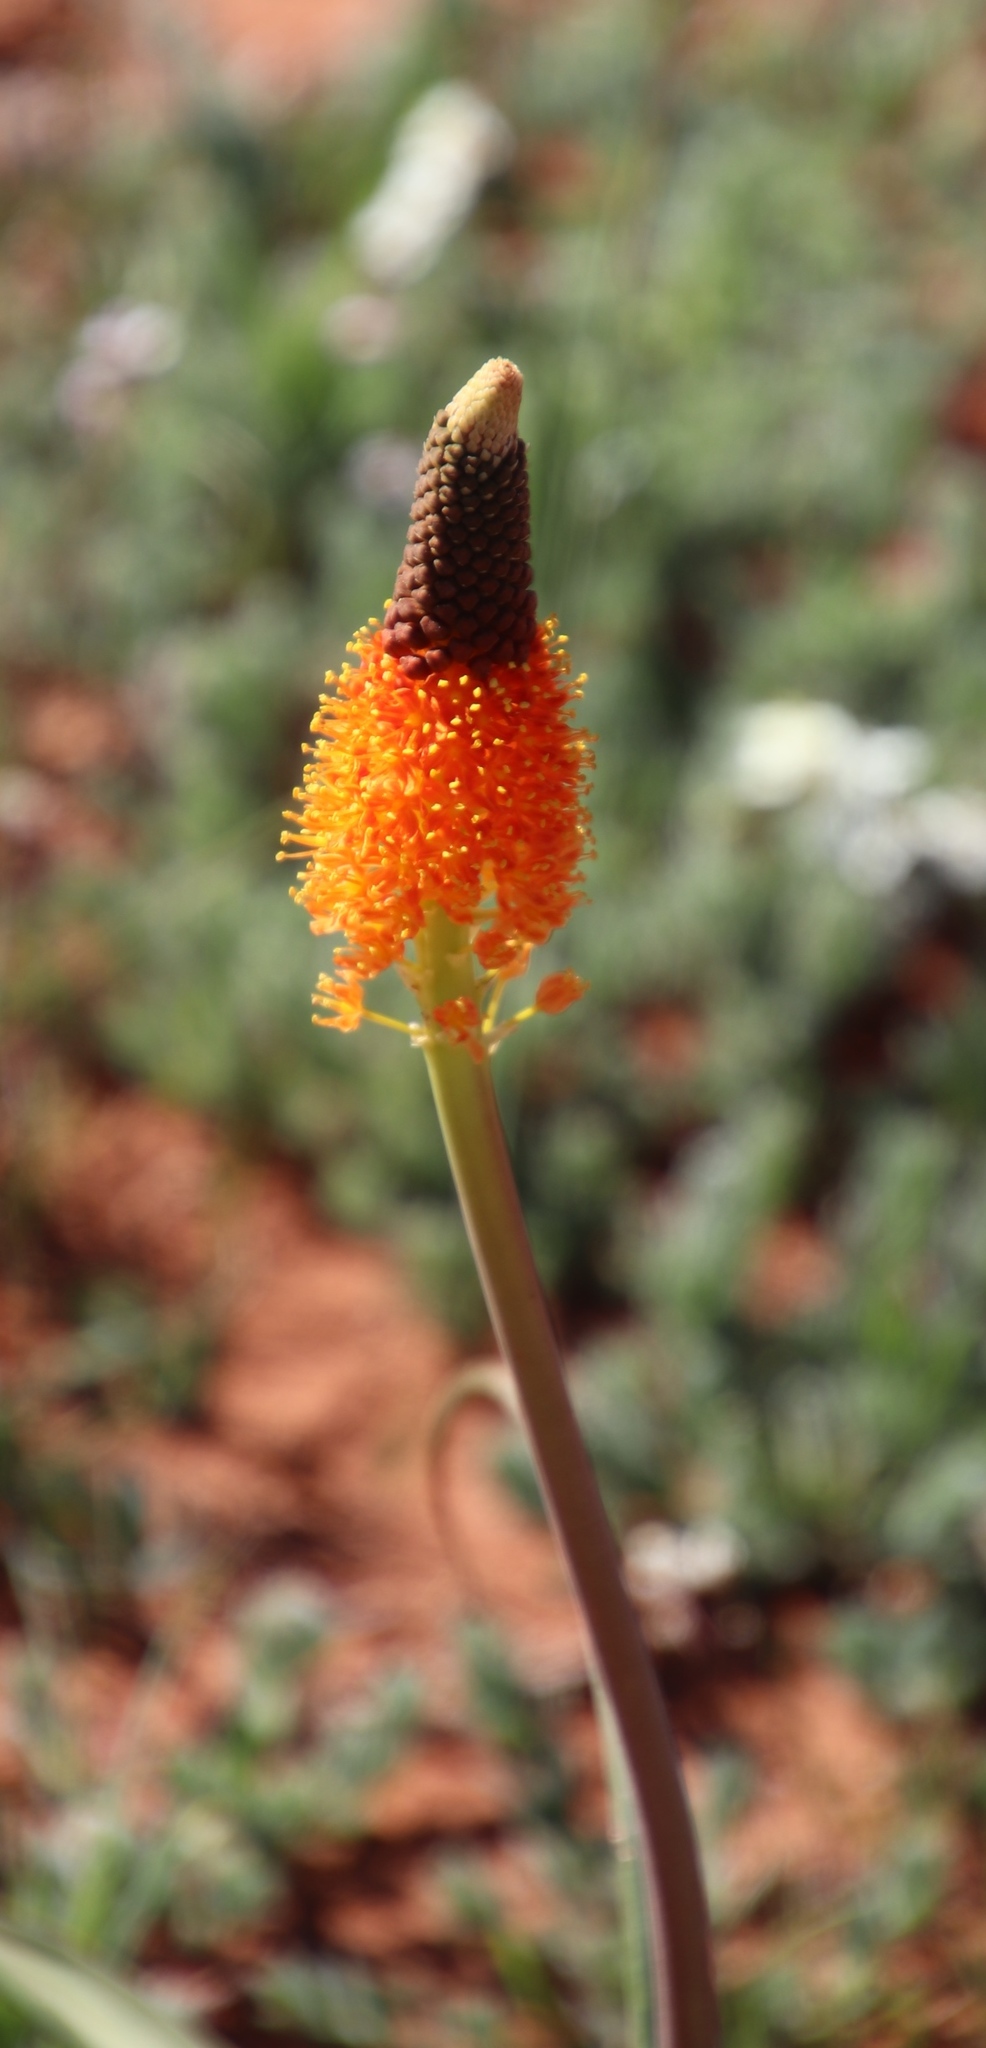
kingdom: Plantae
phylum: Tracheophyta
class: Liliopsida
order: Asparagales
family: Asphodelaceae
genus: Bulbinella
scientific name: Bulbinella latifolia
